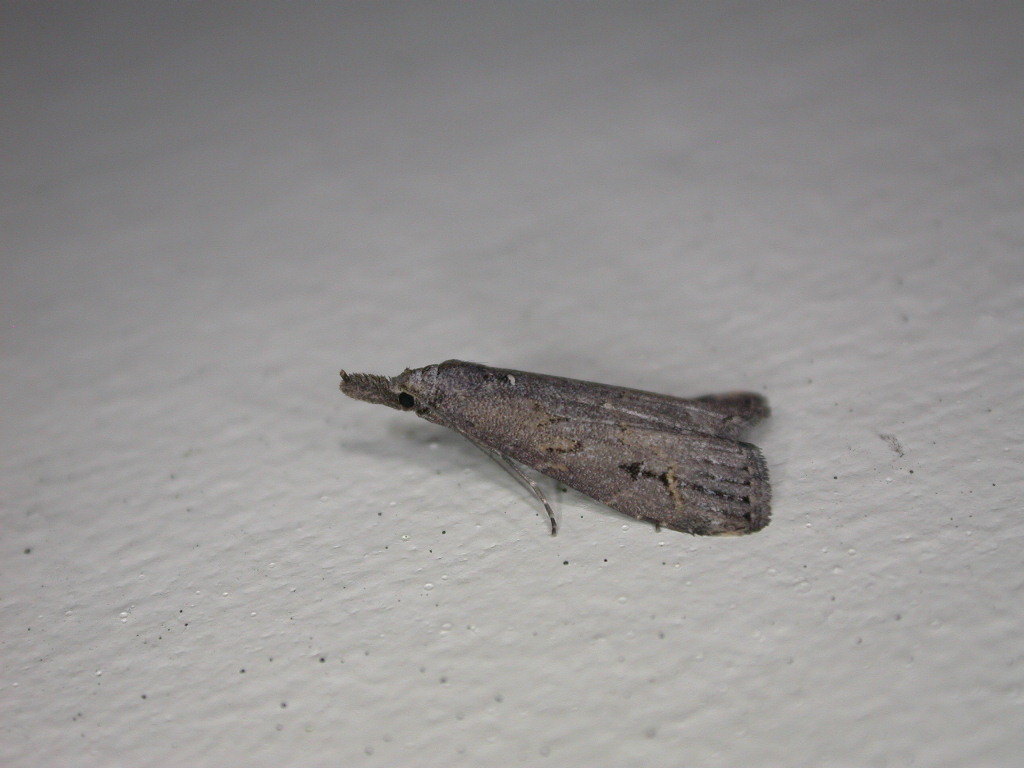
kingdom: Animalia
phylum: Arthropoda
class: Insecta
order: Lepidoptera
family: Erebidae
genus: Schrankia
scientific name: Schrankia costaestrigalis
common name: Pinion-streaked snout
